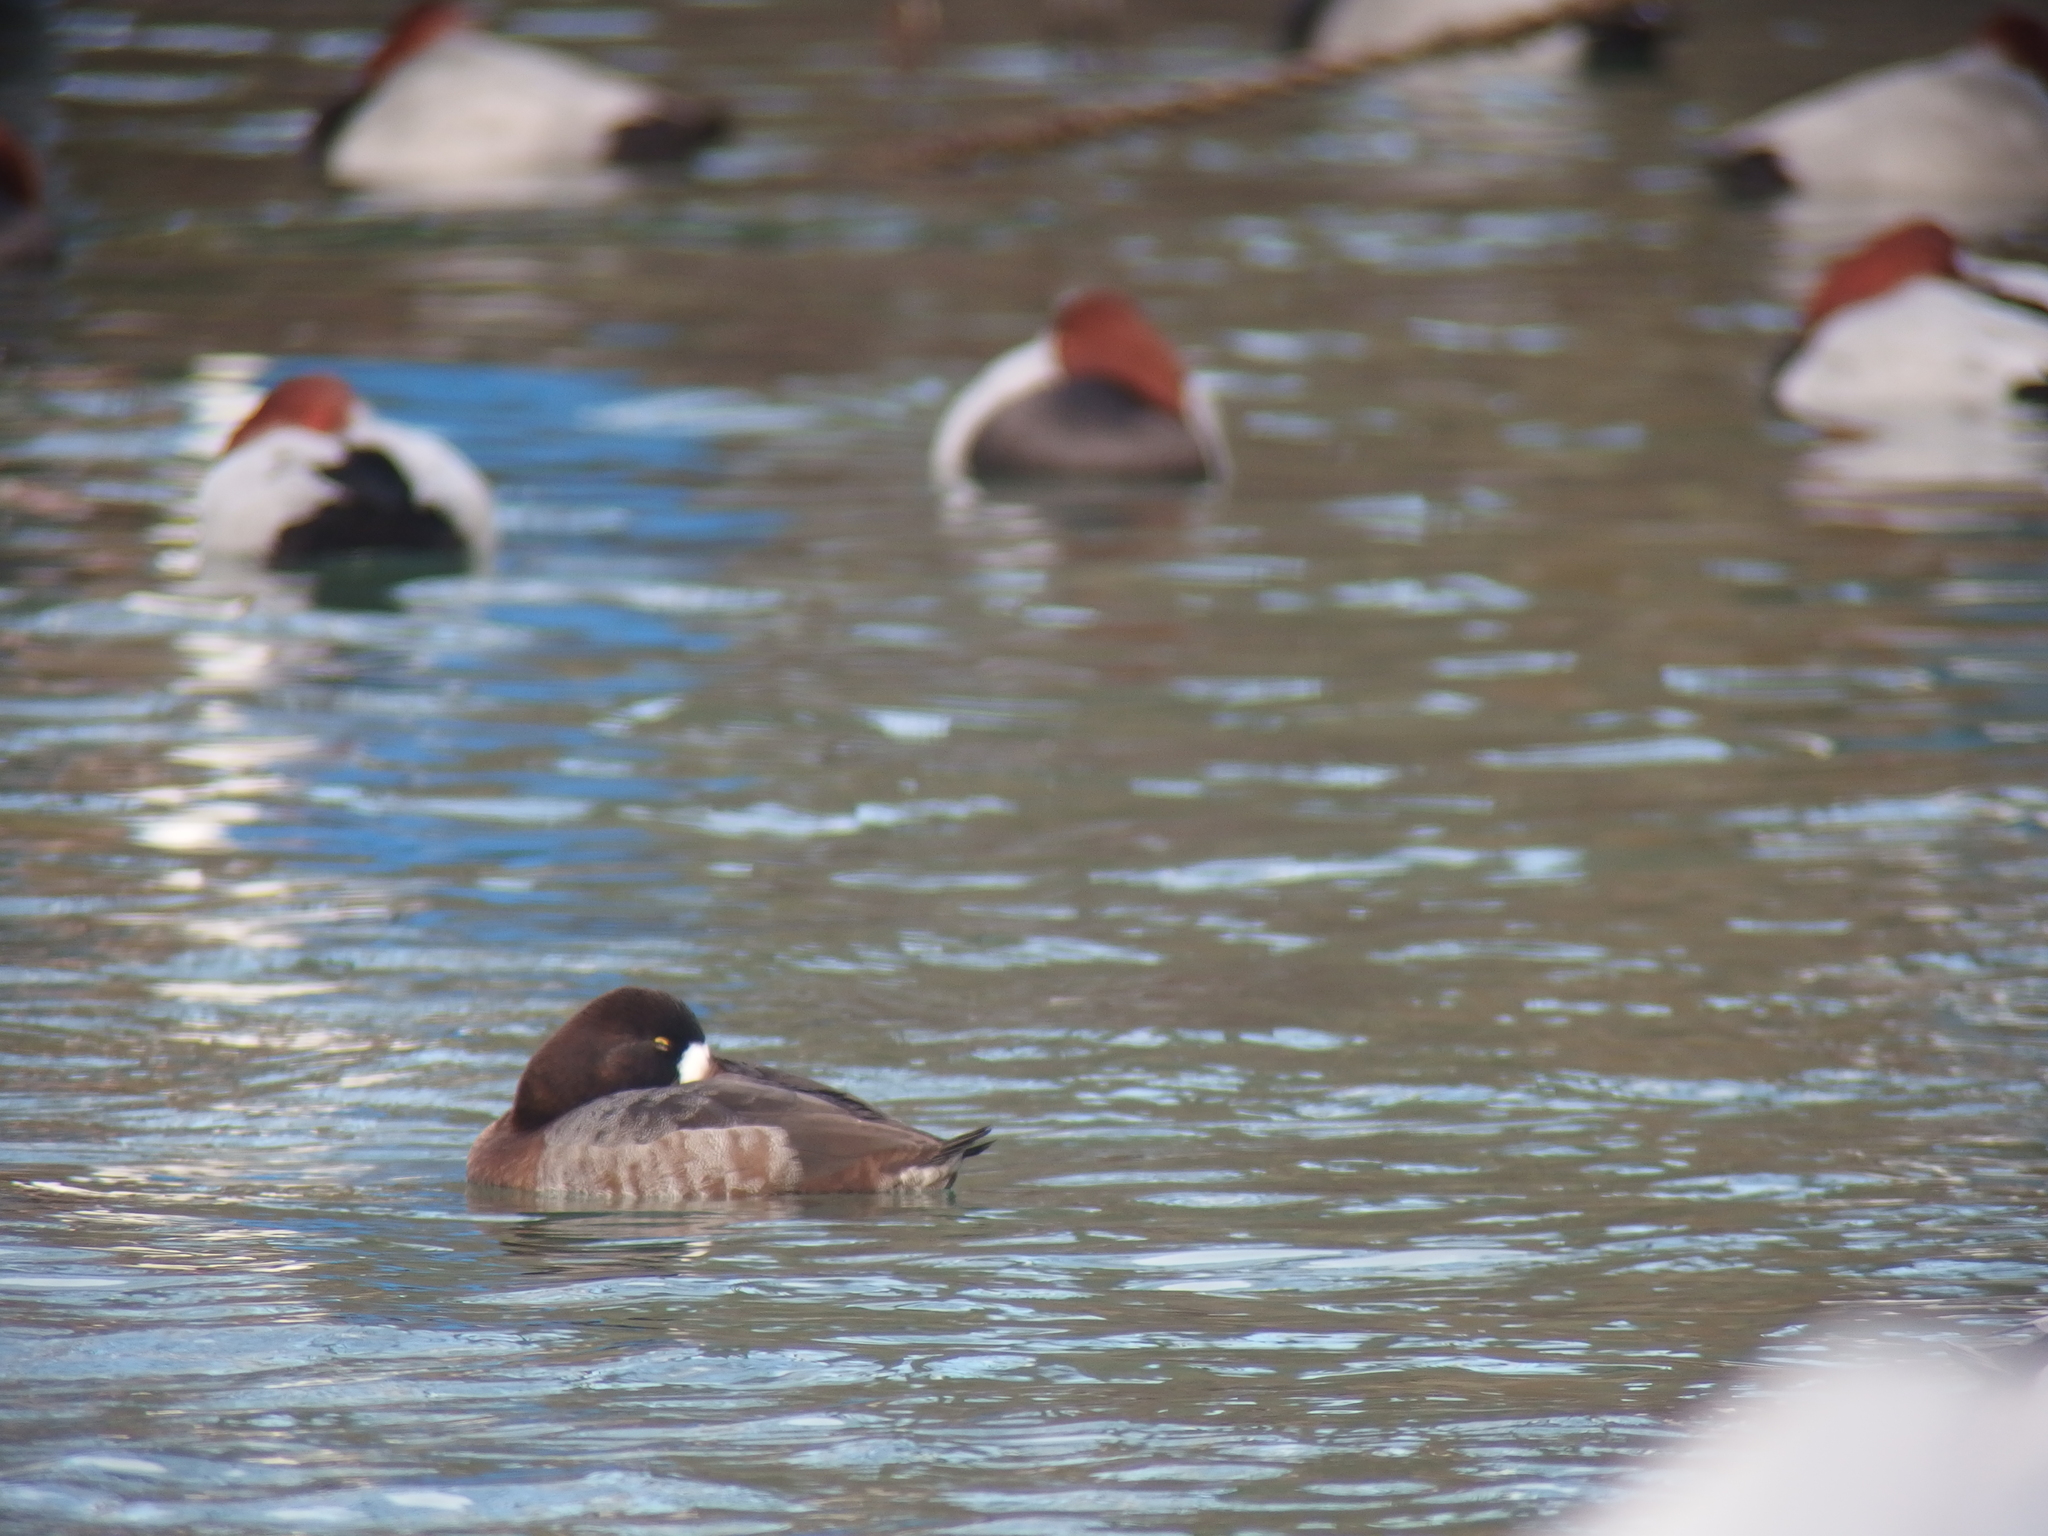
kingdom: Animalia
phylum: Chordata
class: Aves
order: Anseriformes
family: Anatidae
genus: Aythya
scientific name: Aythya marila
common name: Greater scaup
